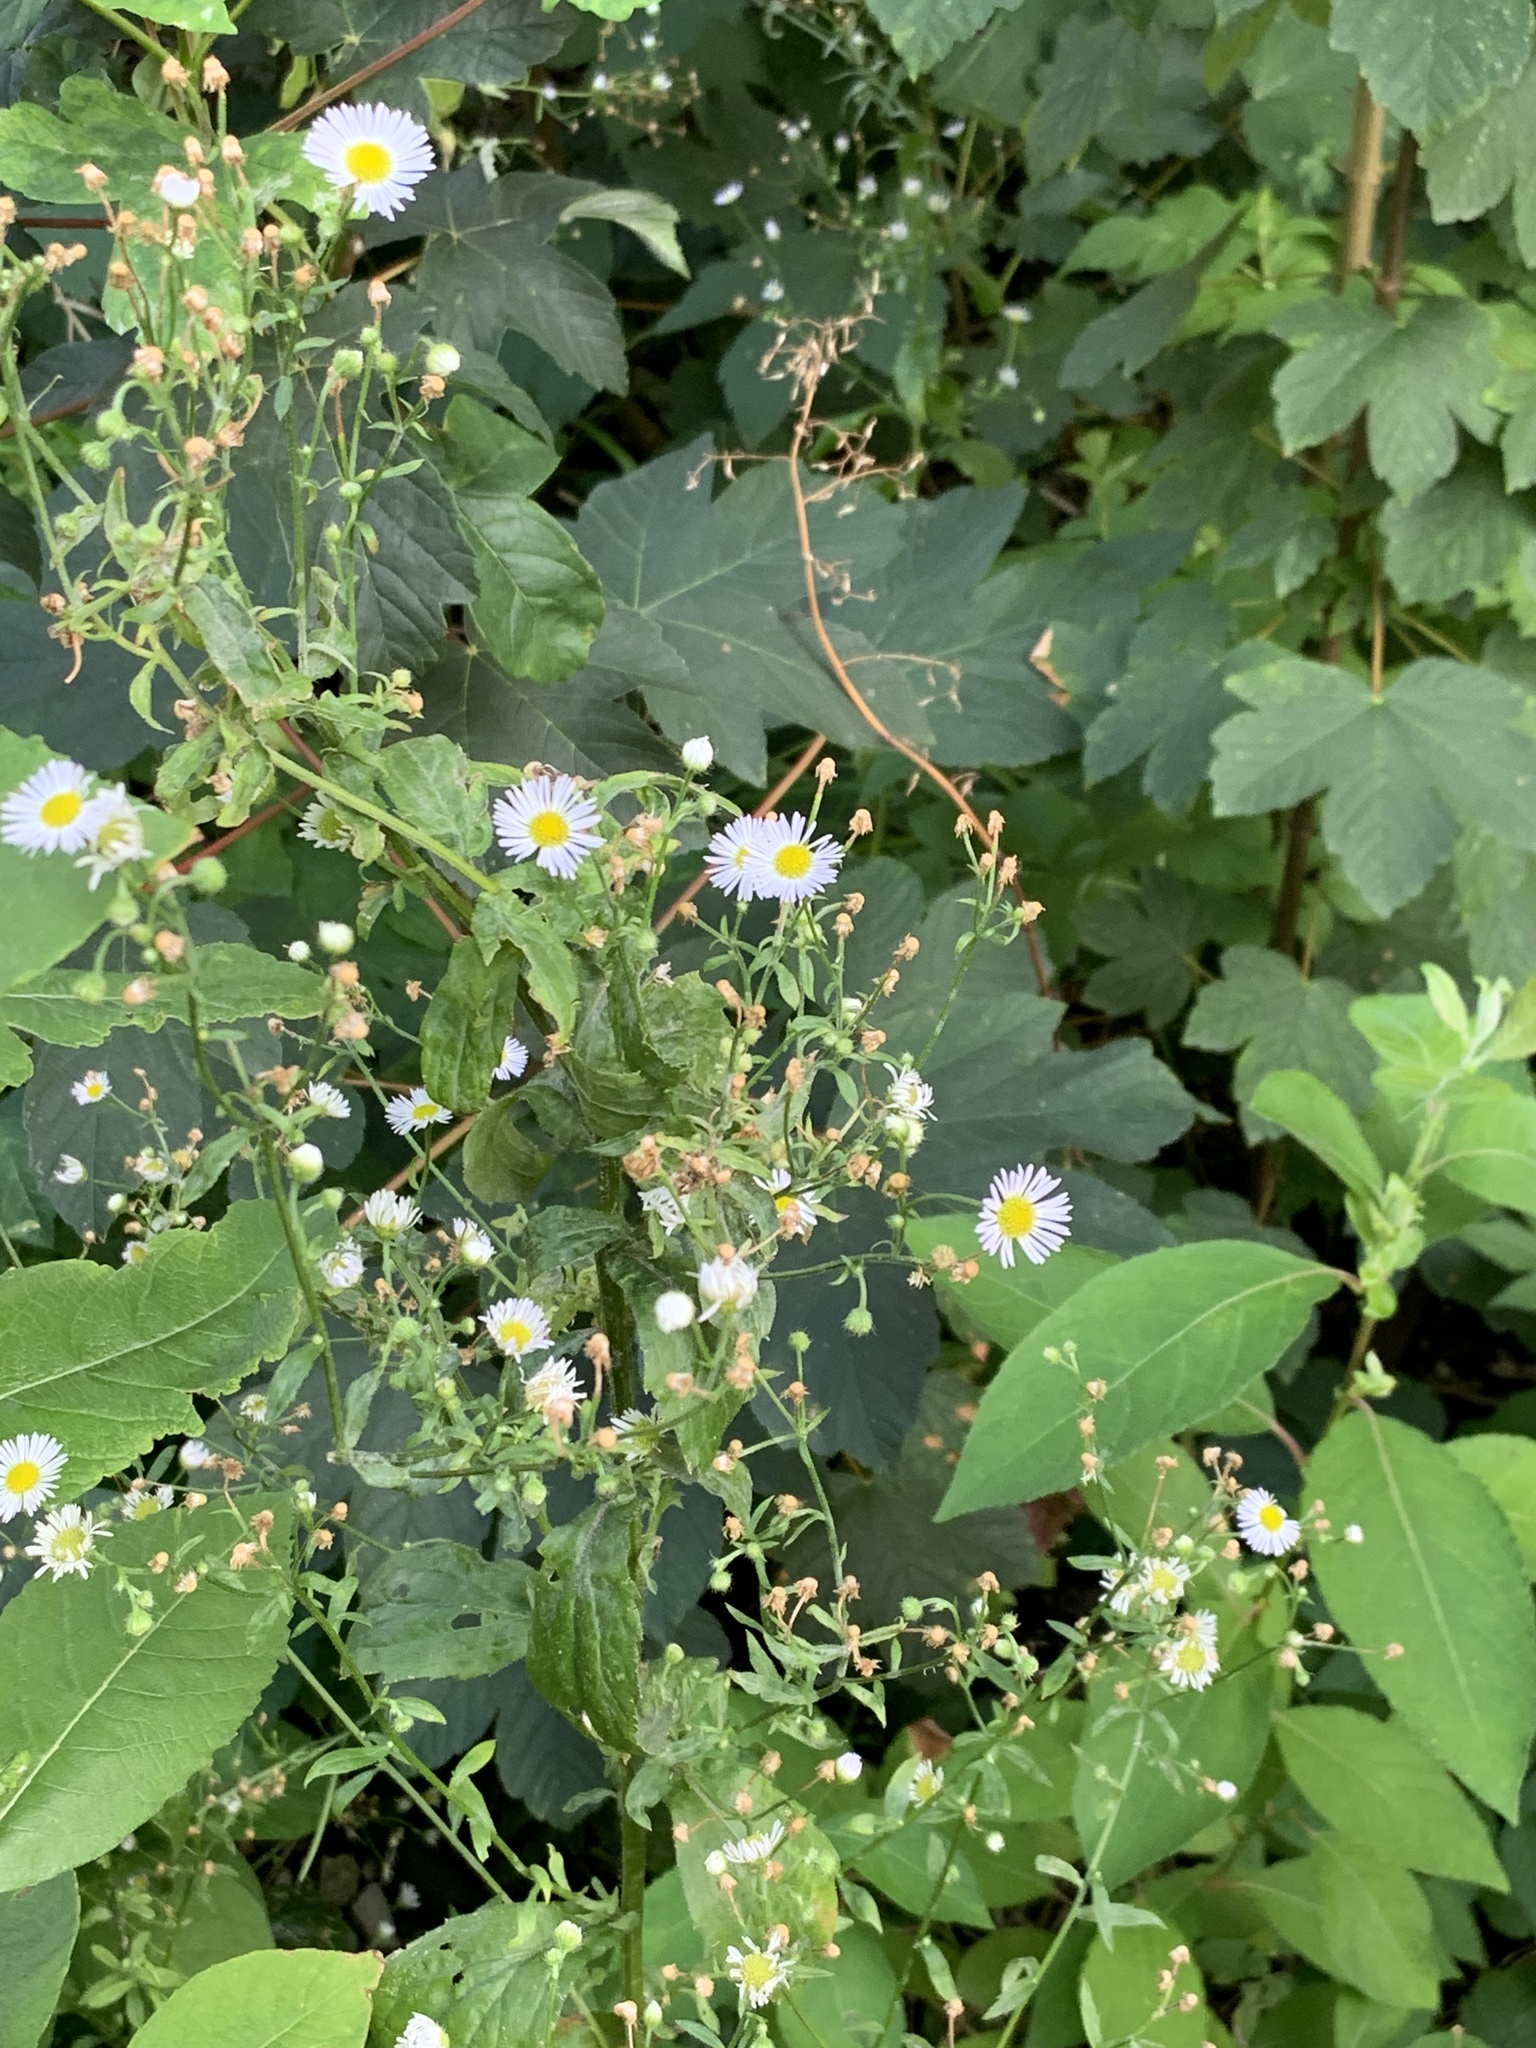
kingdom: Plantae
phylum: Tracheophyta
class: Magnoliopsida
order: Asterales
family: Asteraceae
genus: Erigeron
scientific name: Erigeron annuus
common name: Tall fleabane
